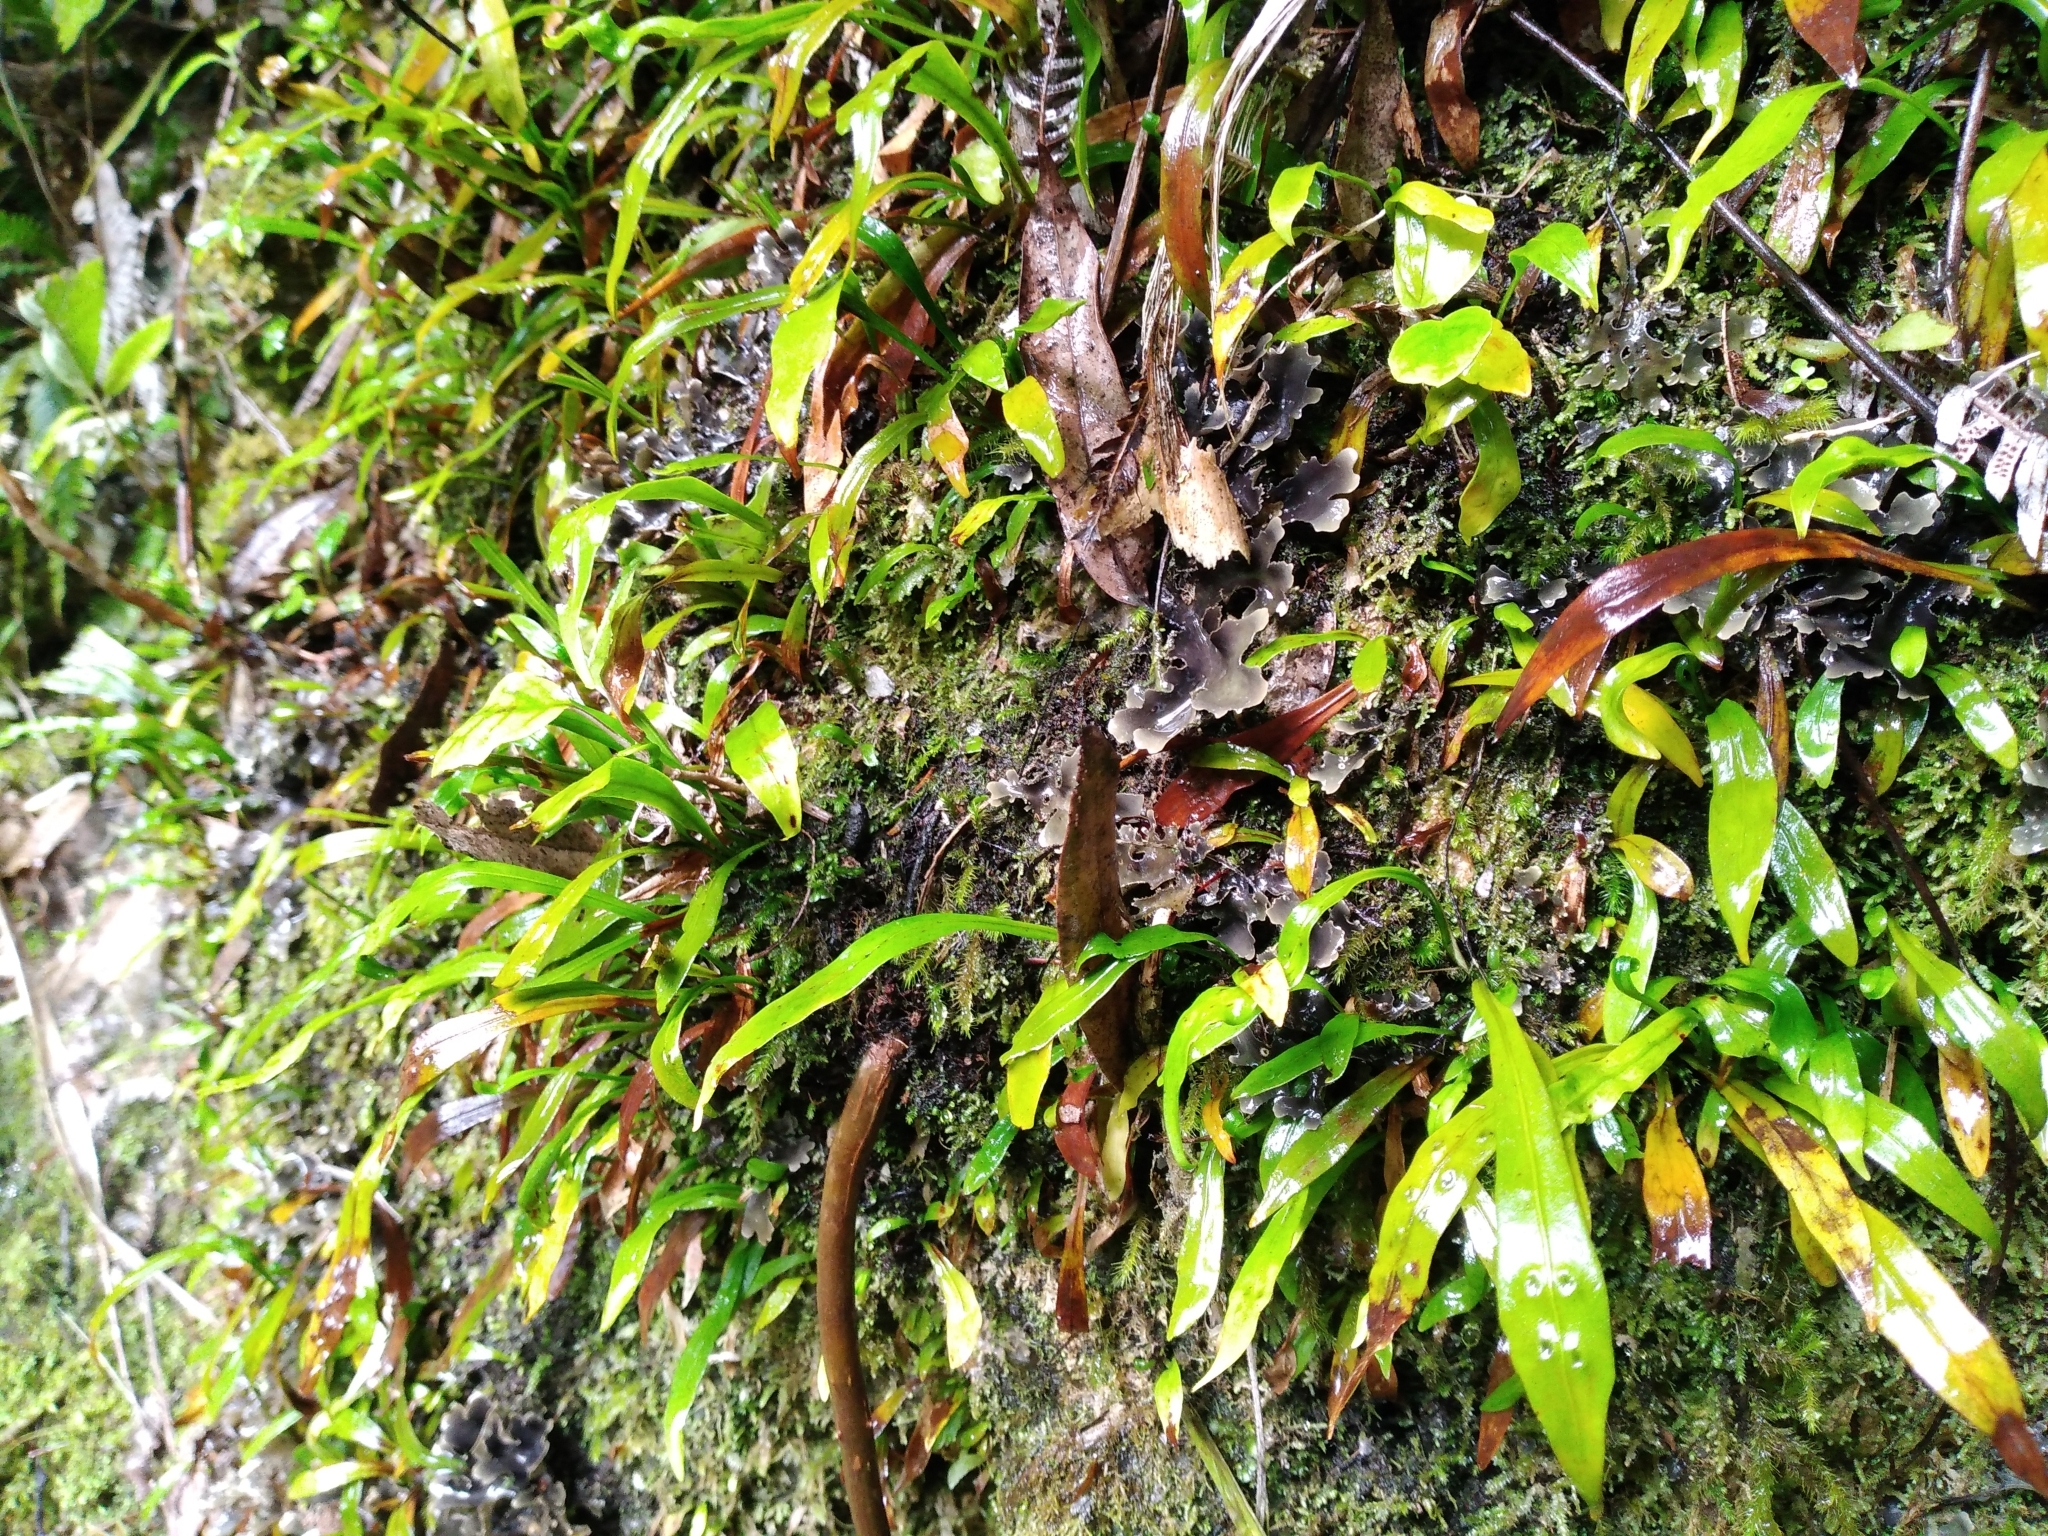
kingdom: Plantae
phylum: Tracheophyta
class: Polypodiopsida
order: Polypodiales
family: Polypodiaceae
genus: Loxogramme
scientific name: Loxogramme dictyopteris
